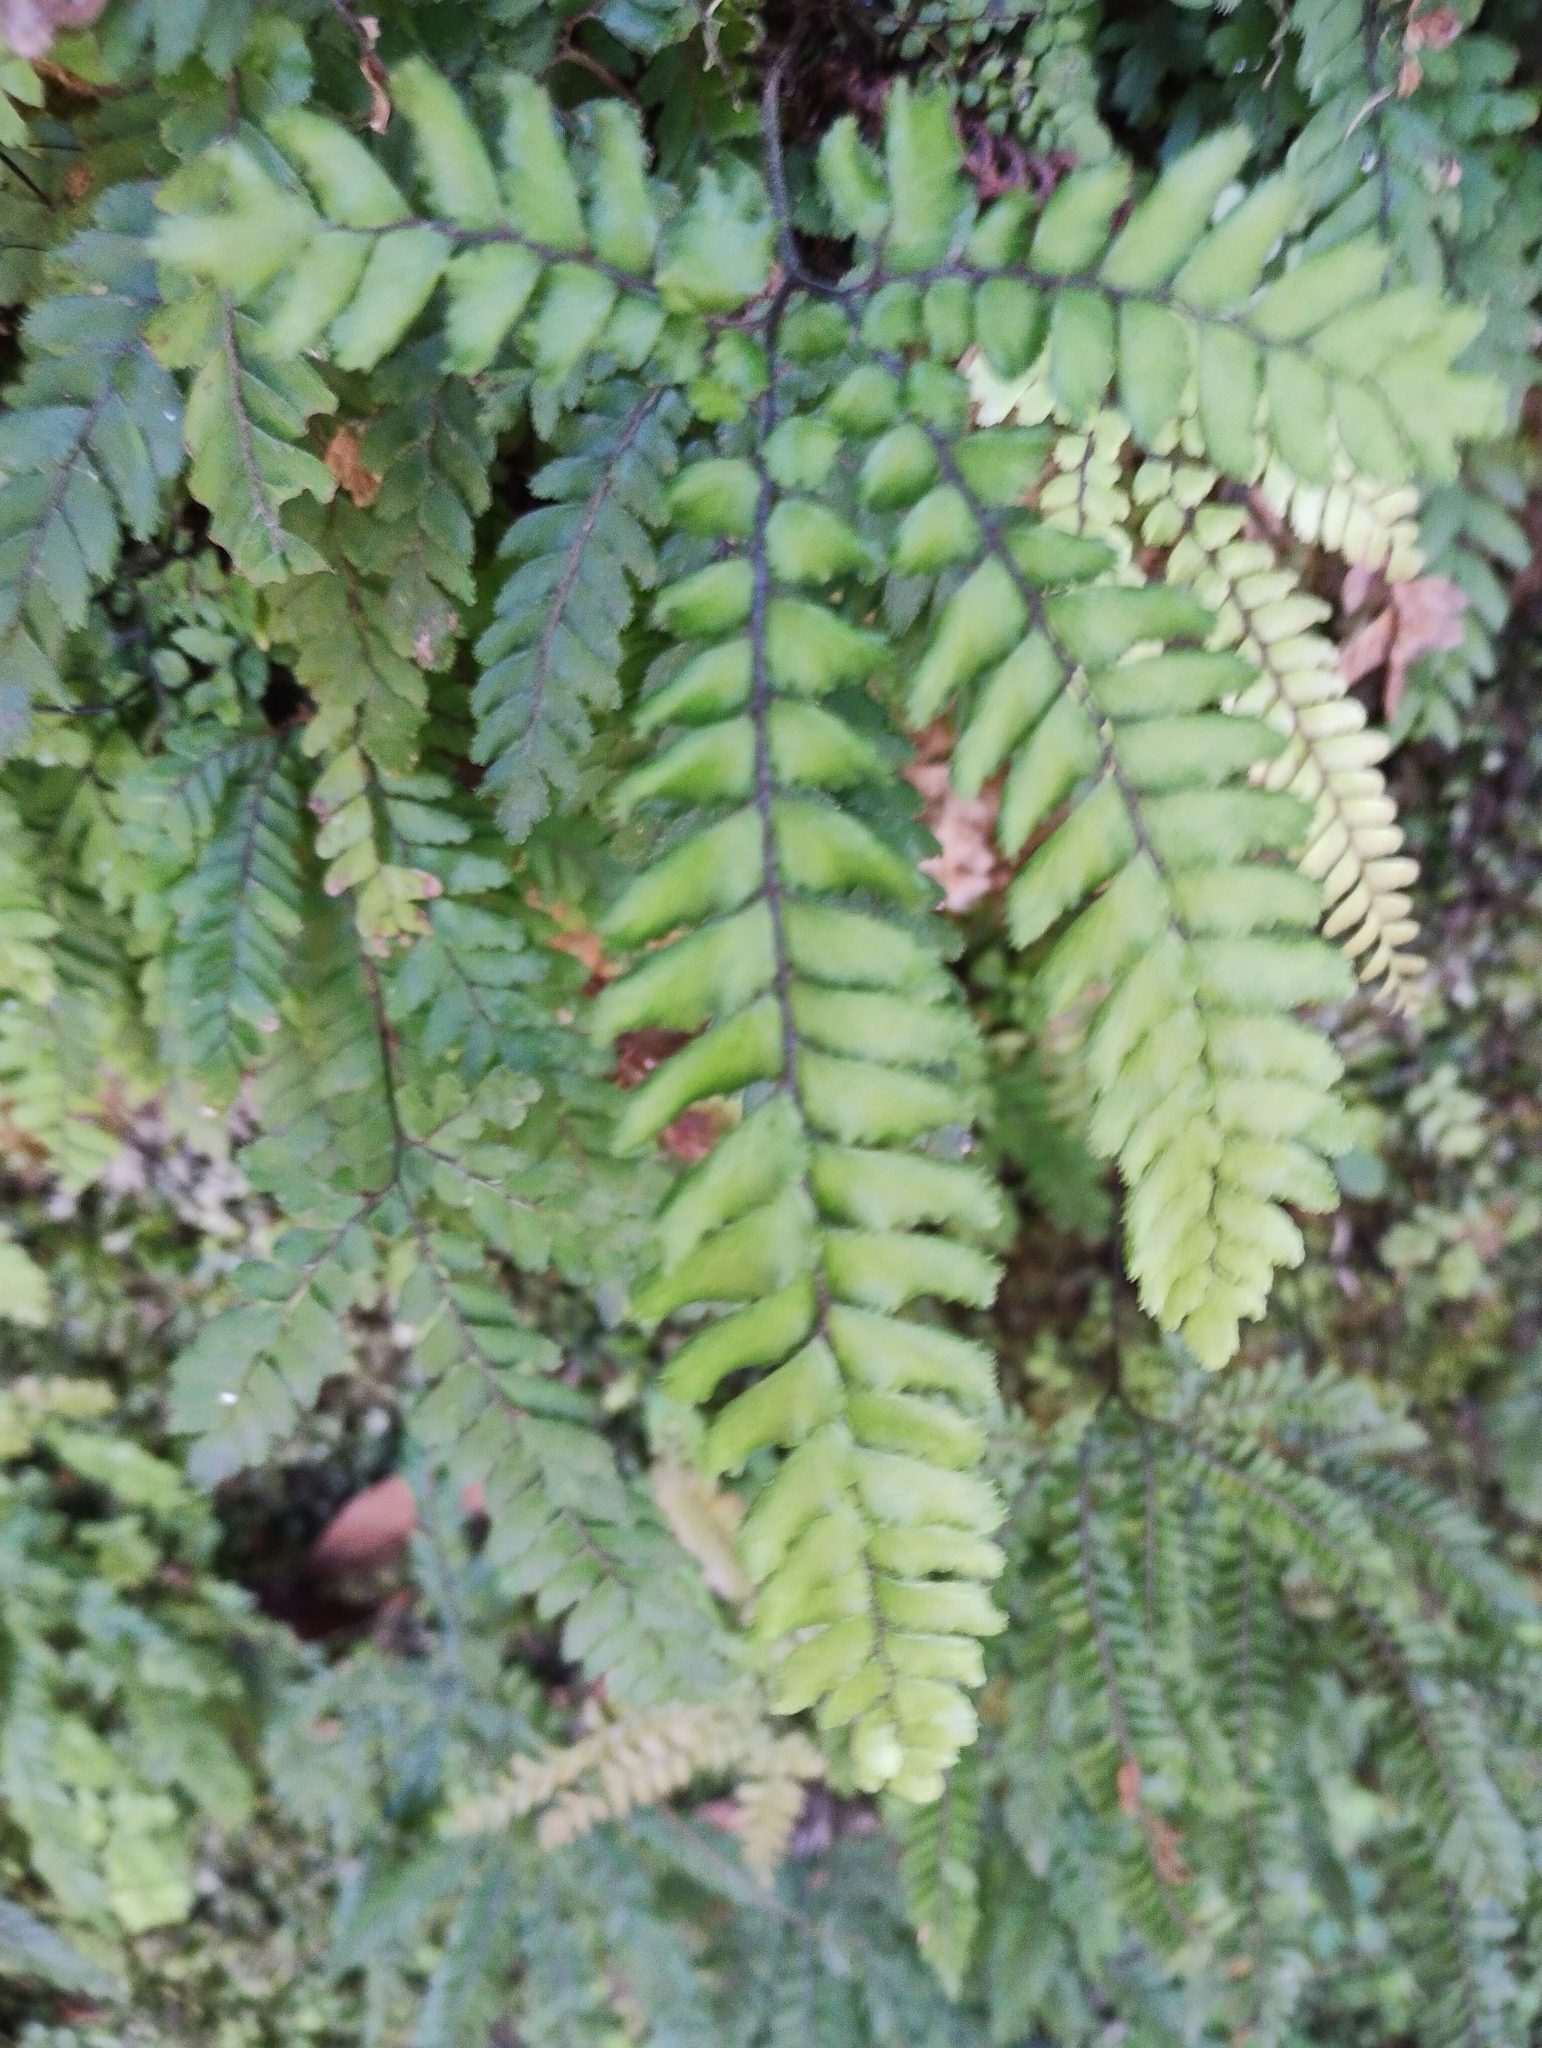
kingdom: Plantae
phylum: Tracheophyta
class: Polypodiopsida
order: Polypodiales
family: Pteridaceae
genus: Adiantum
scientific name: Adiantum hispidulum
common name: Rough maidenhair
